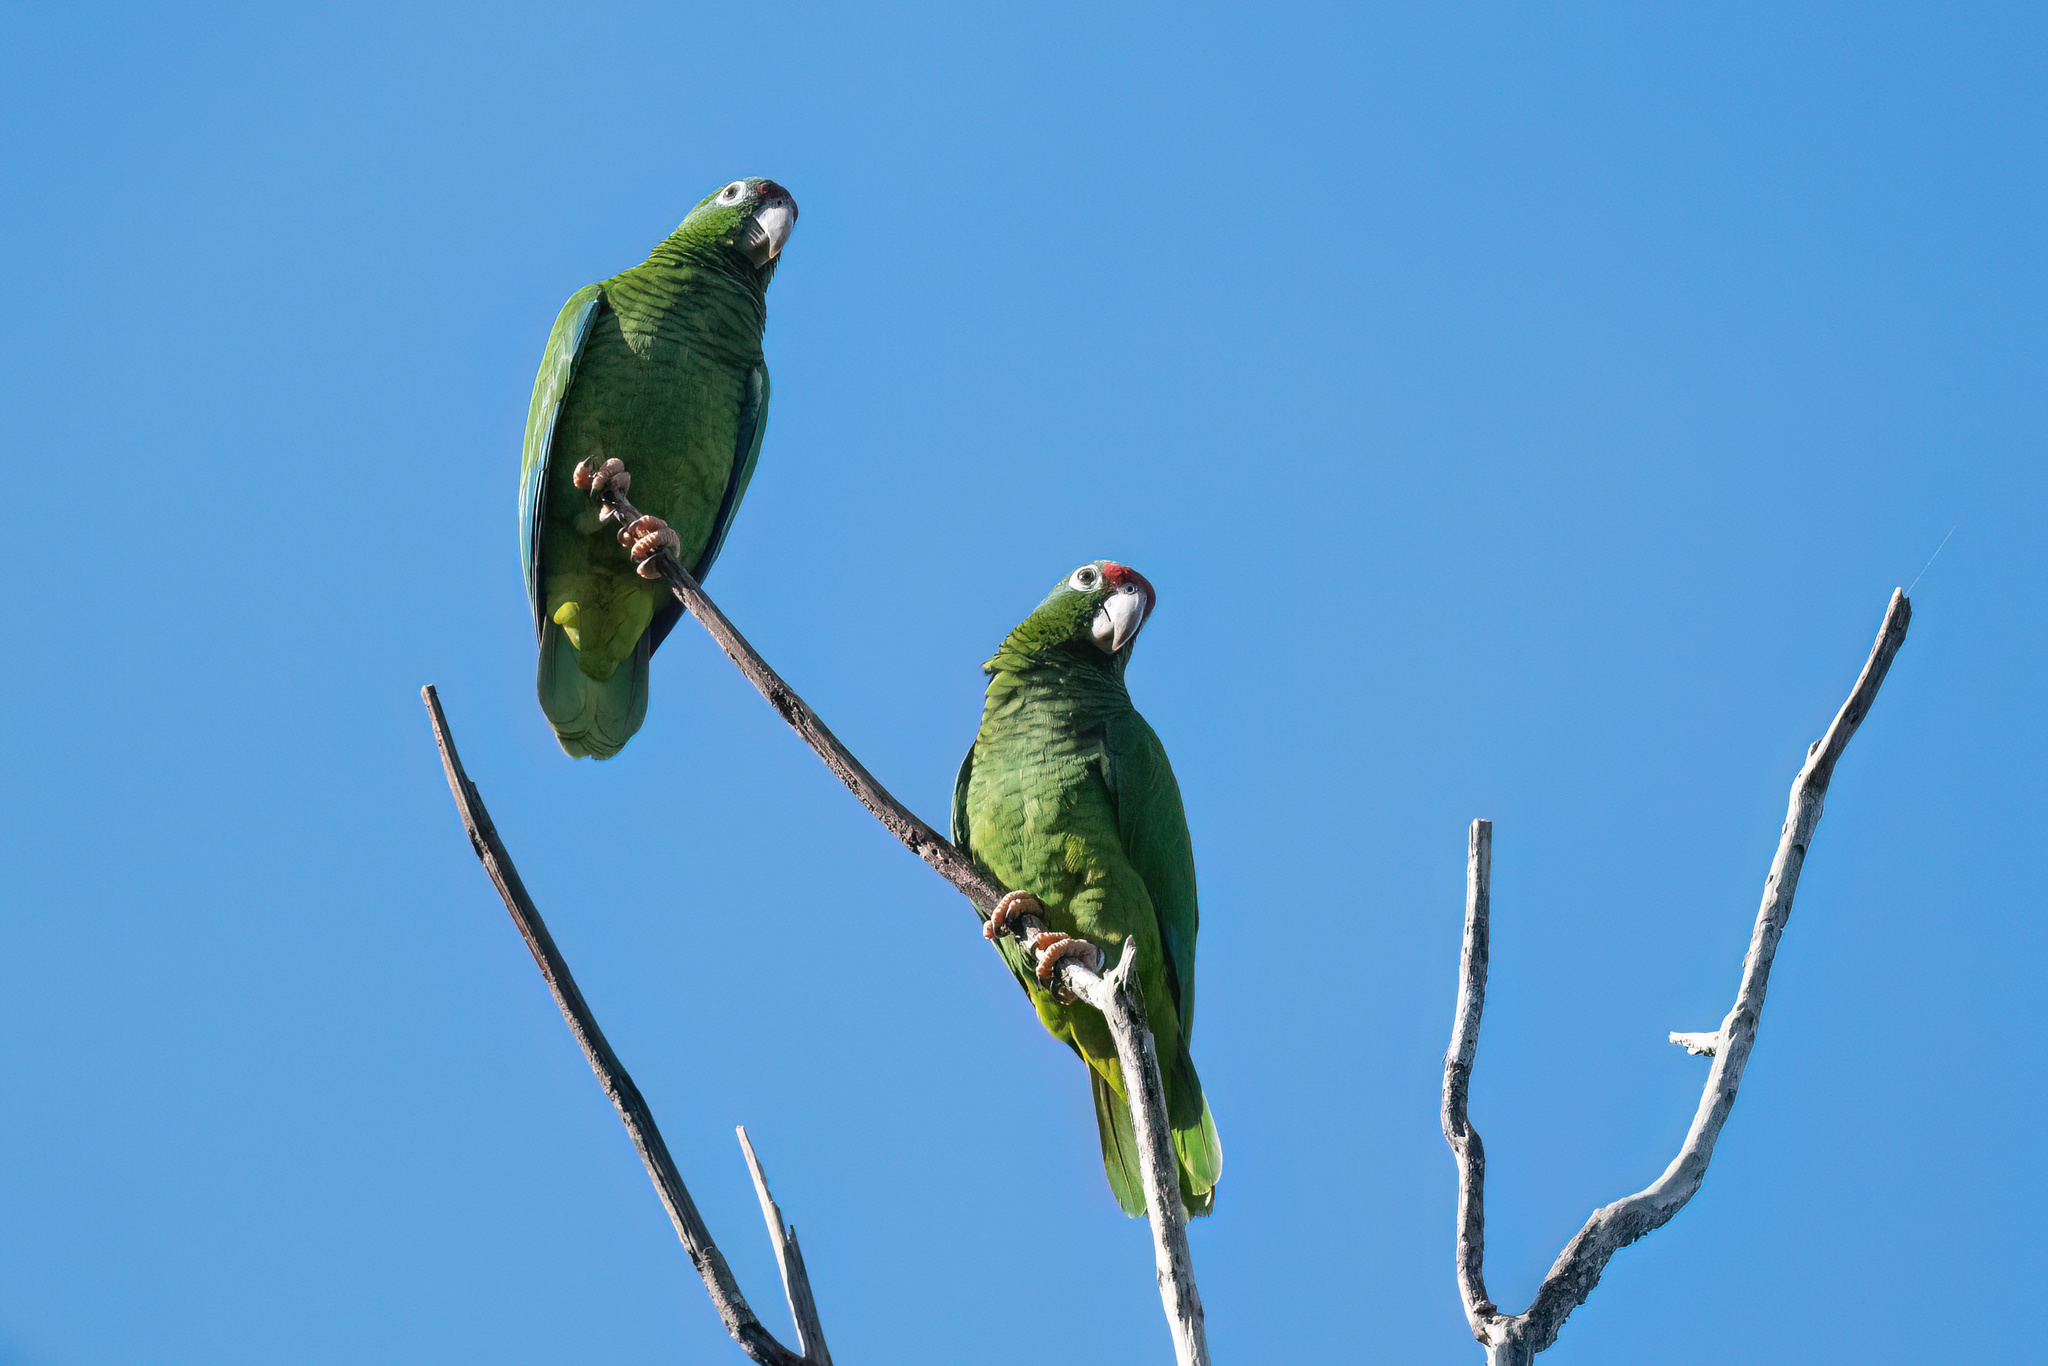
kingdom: Animalia
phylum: Chordata
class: Aves
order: Psittaciformes
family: Psittacidae
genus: Amazona
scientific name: Amazona vittata
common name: Puerto rican amazon
